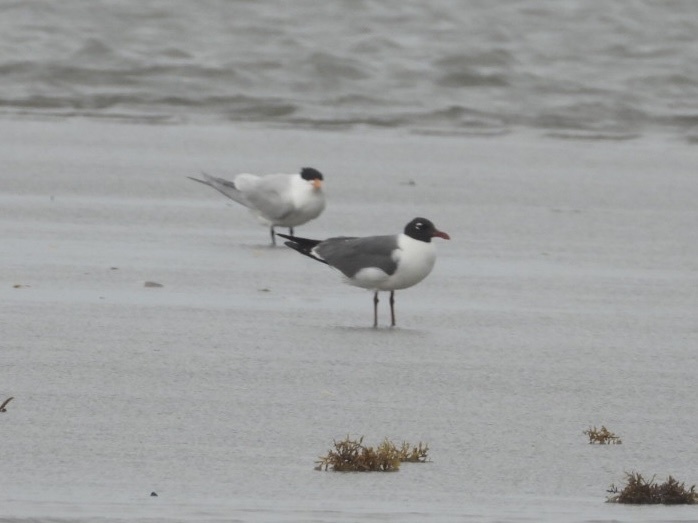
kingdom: Animalia
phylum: Chordata
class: Aves
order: Charadriiformes
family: Laridae
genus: Leucophaeus
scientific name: Leucophaeus atricilla
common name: Laughing gull
